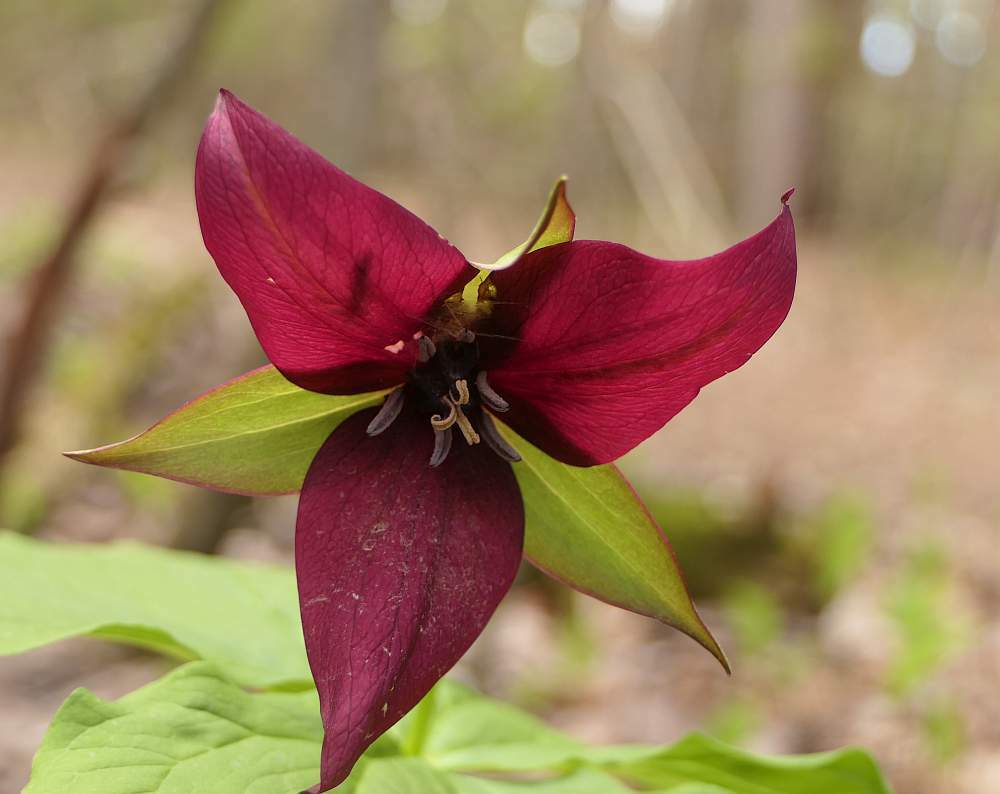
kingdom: Plantae
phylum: Tracheophyta
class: Liliopsida
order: Liliales
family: Melanthiaceae
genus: Trillium
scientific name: Trillium erectum
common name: Purple trillium
